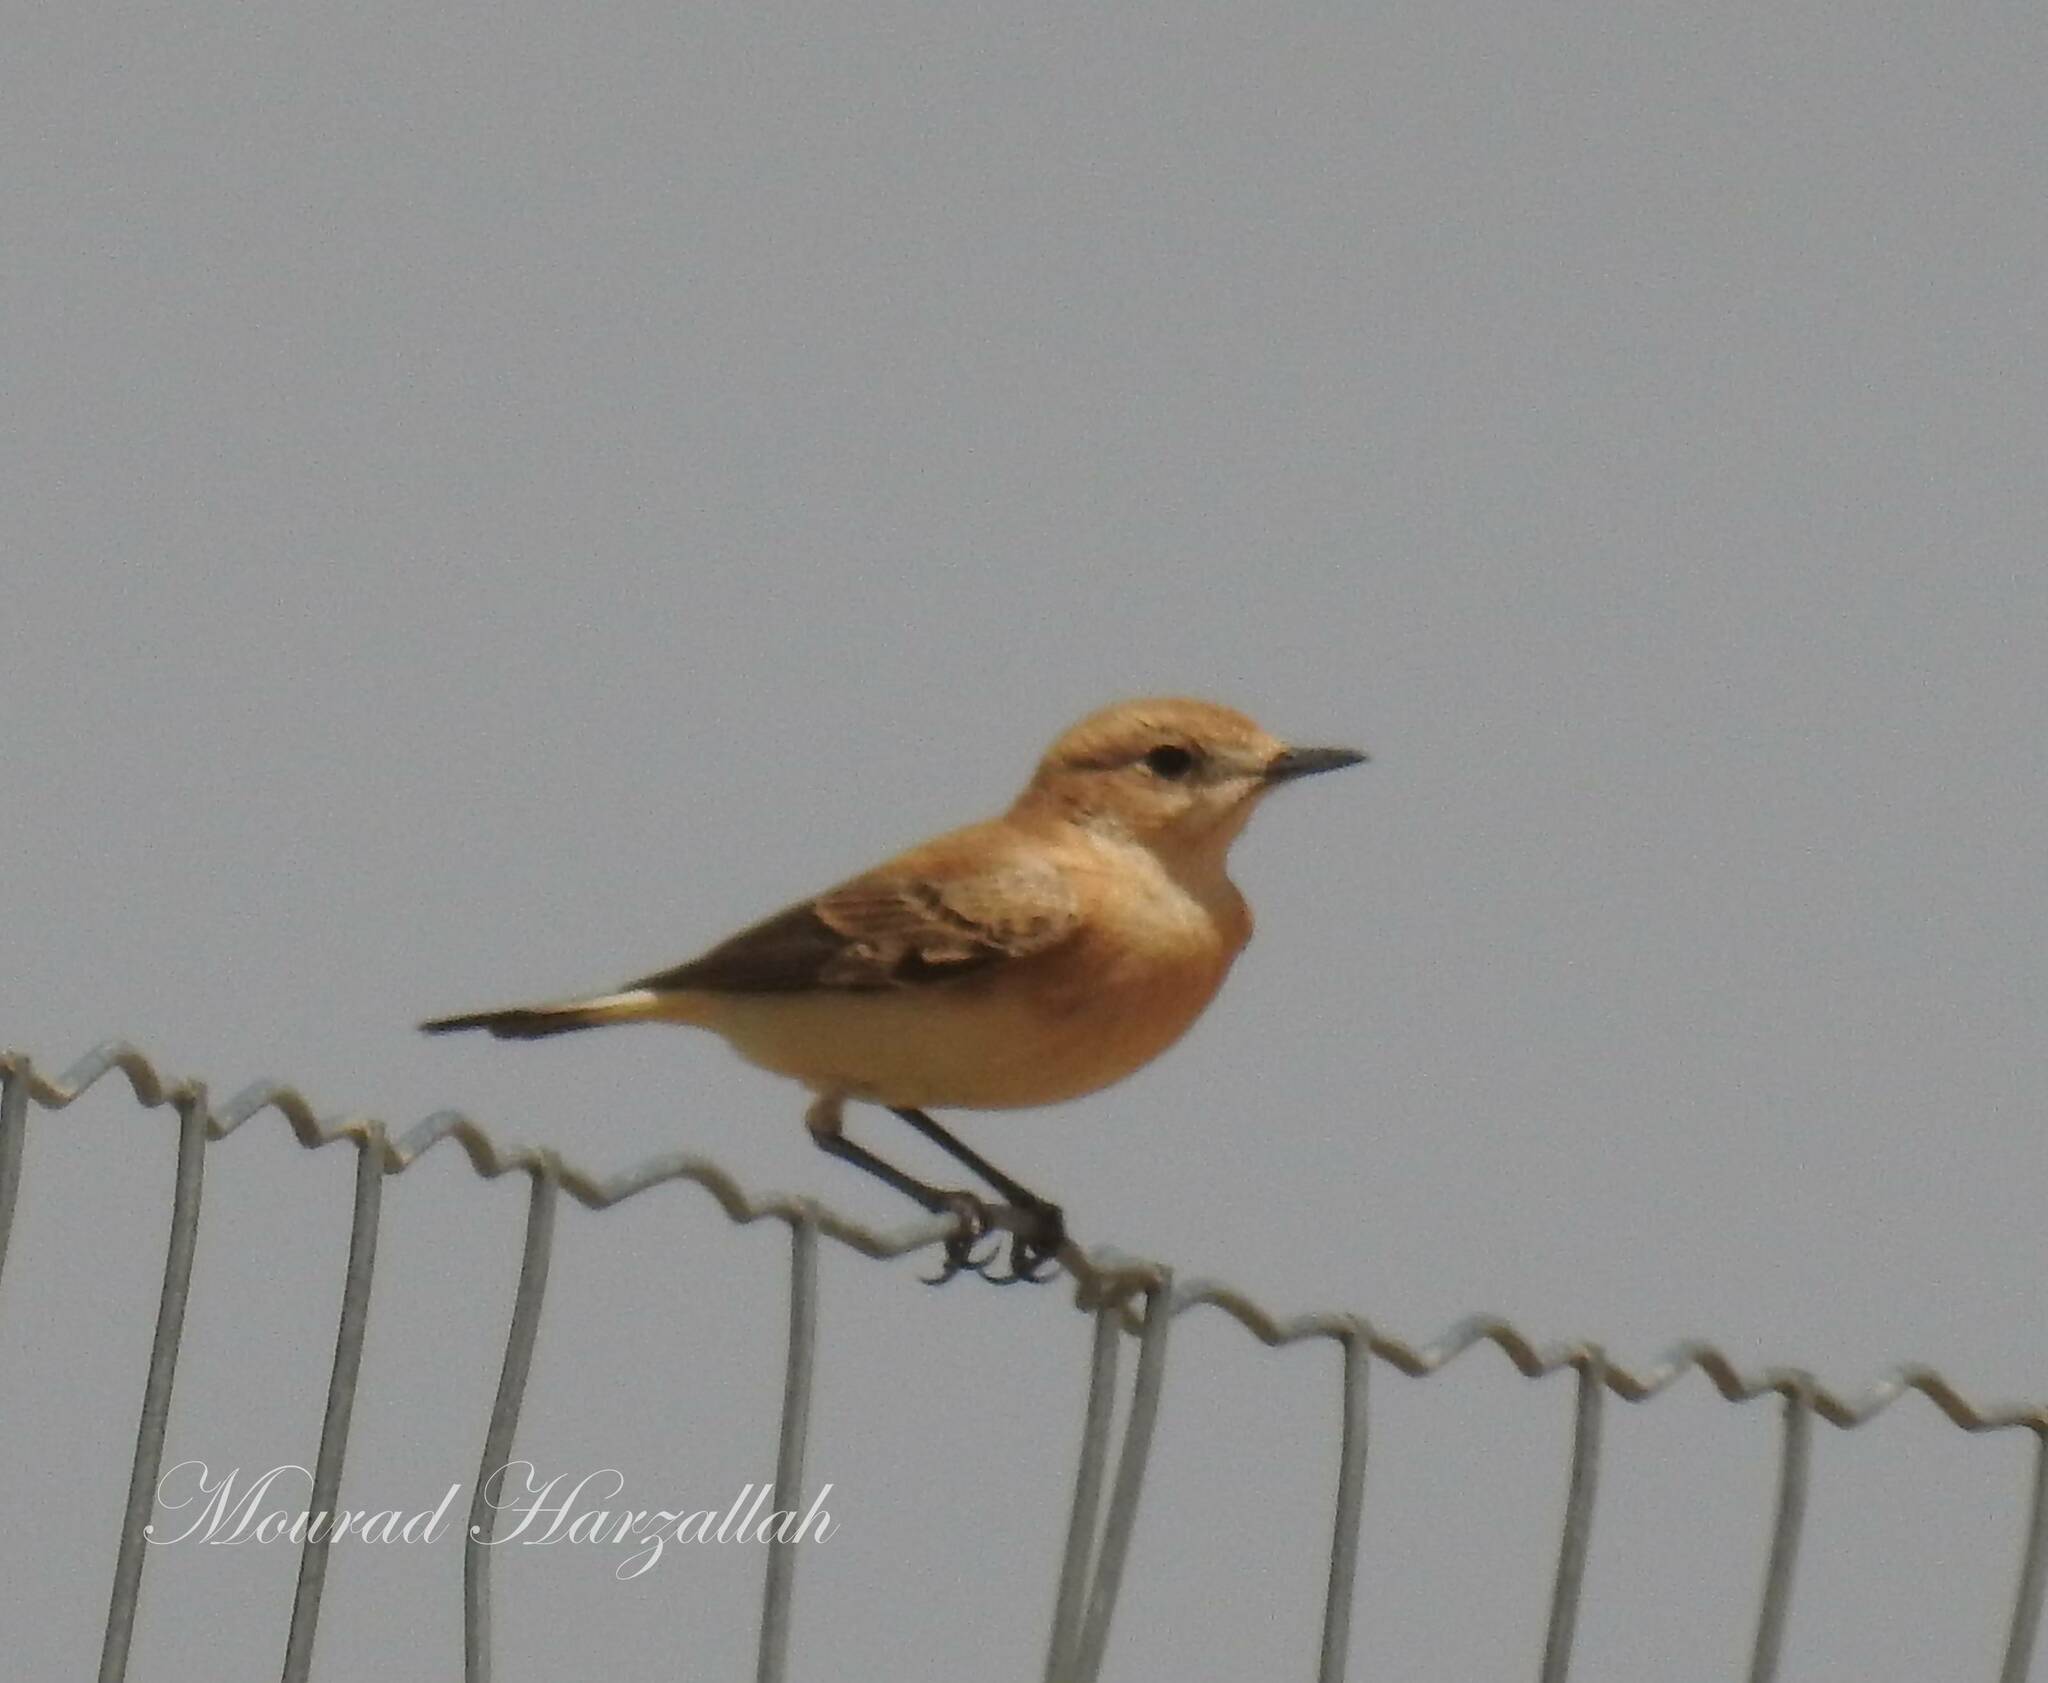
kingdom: Animalia
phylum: Chordata
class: Aves
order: Passeriformes
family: Muscicapidae
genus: Oenanthe
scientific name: Oenanthe hispanica
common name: Black-eared wheatear
